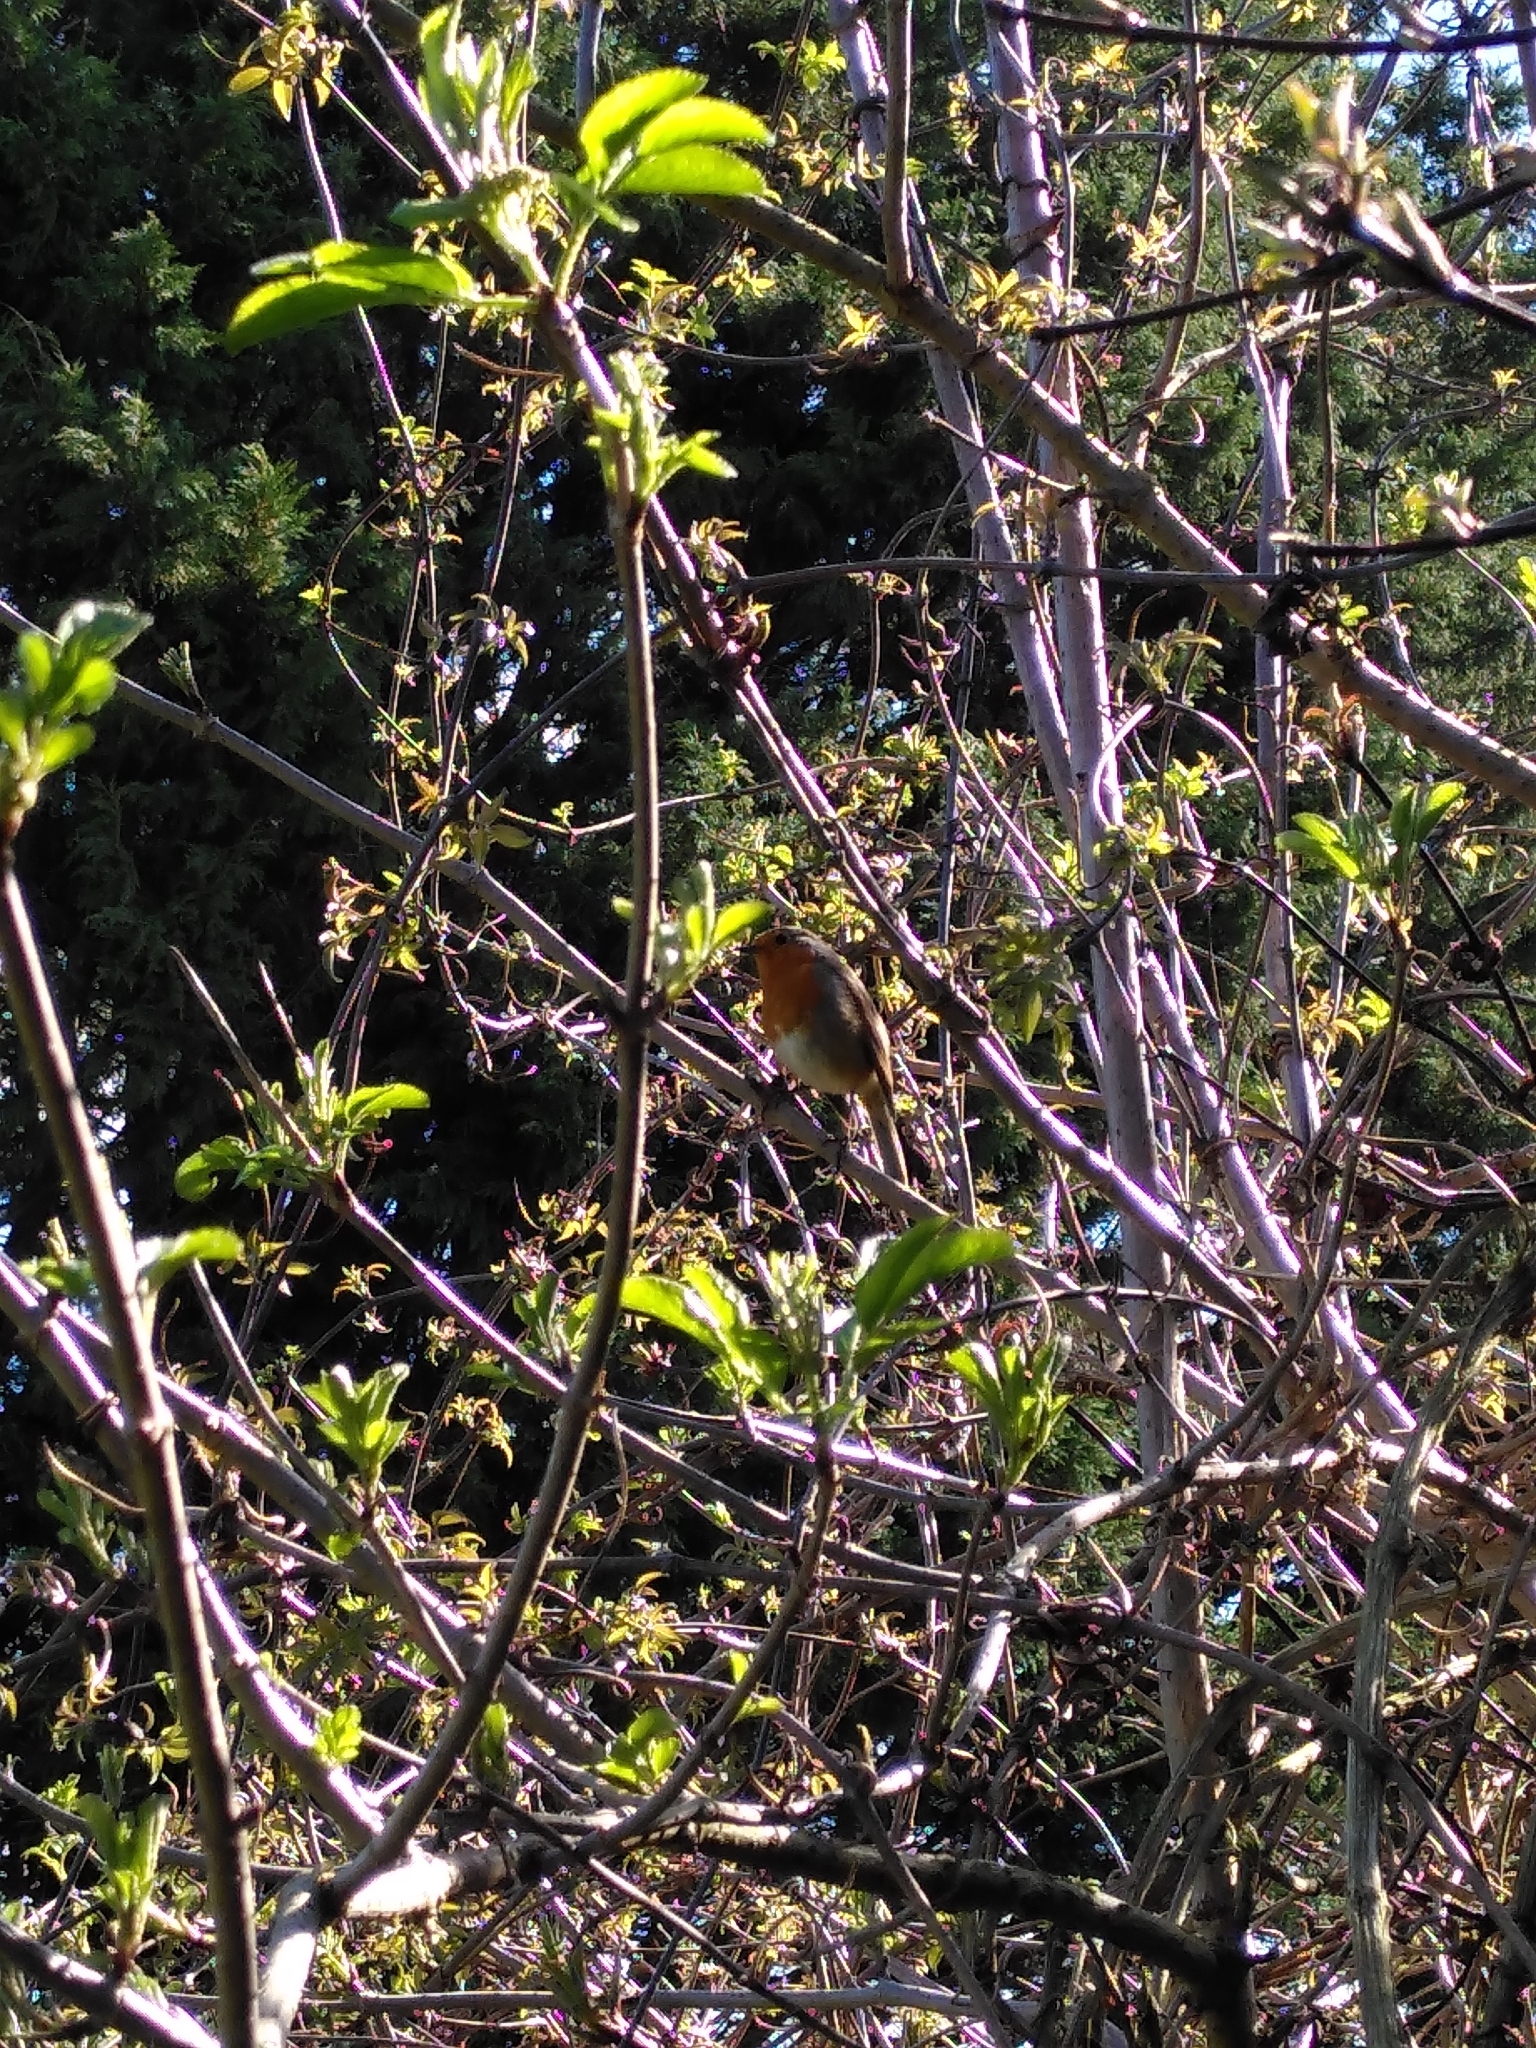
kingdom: Animalia
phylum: Chordata
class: Aves
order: Passeriformes
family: Muscicapidae
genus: Erithacus
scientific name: Erithacus rubecula
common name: European robin
